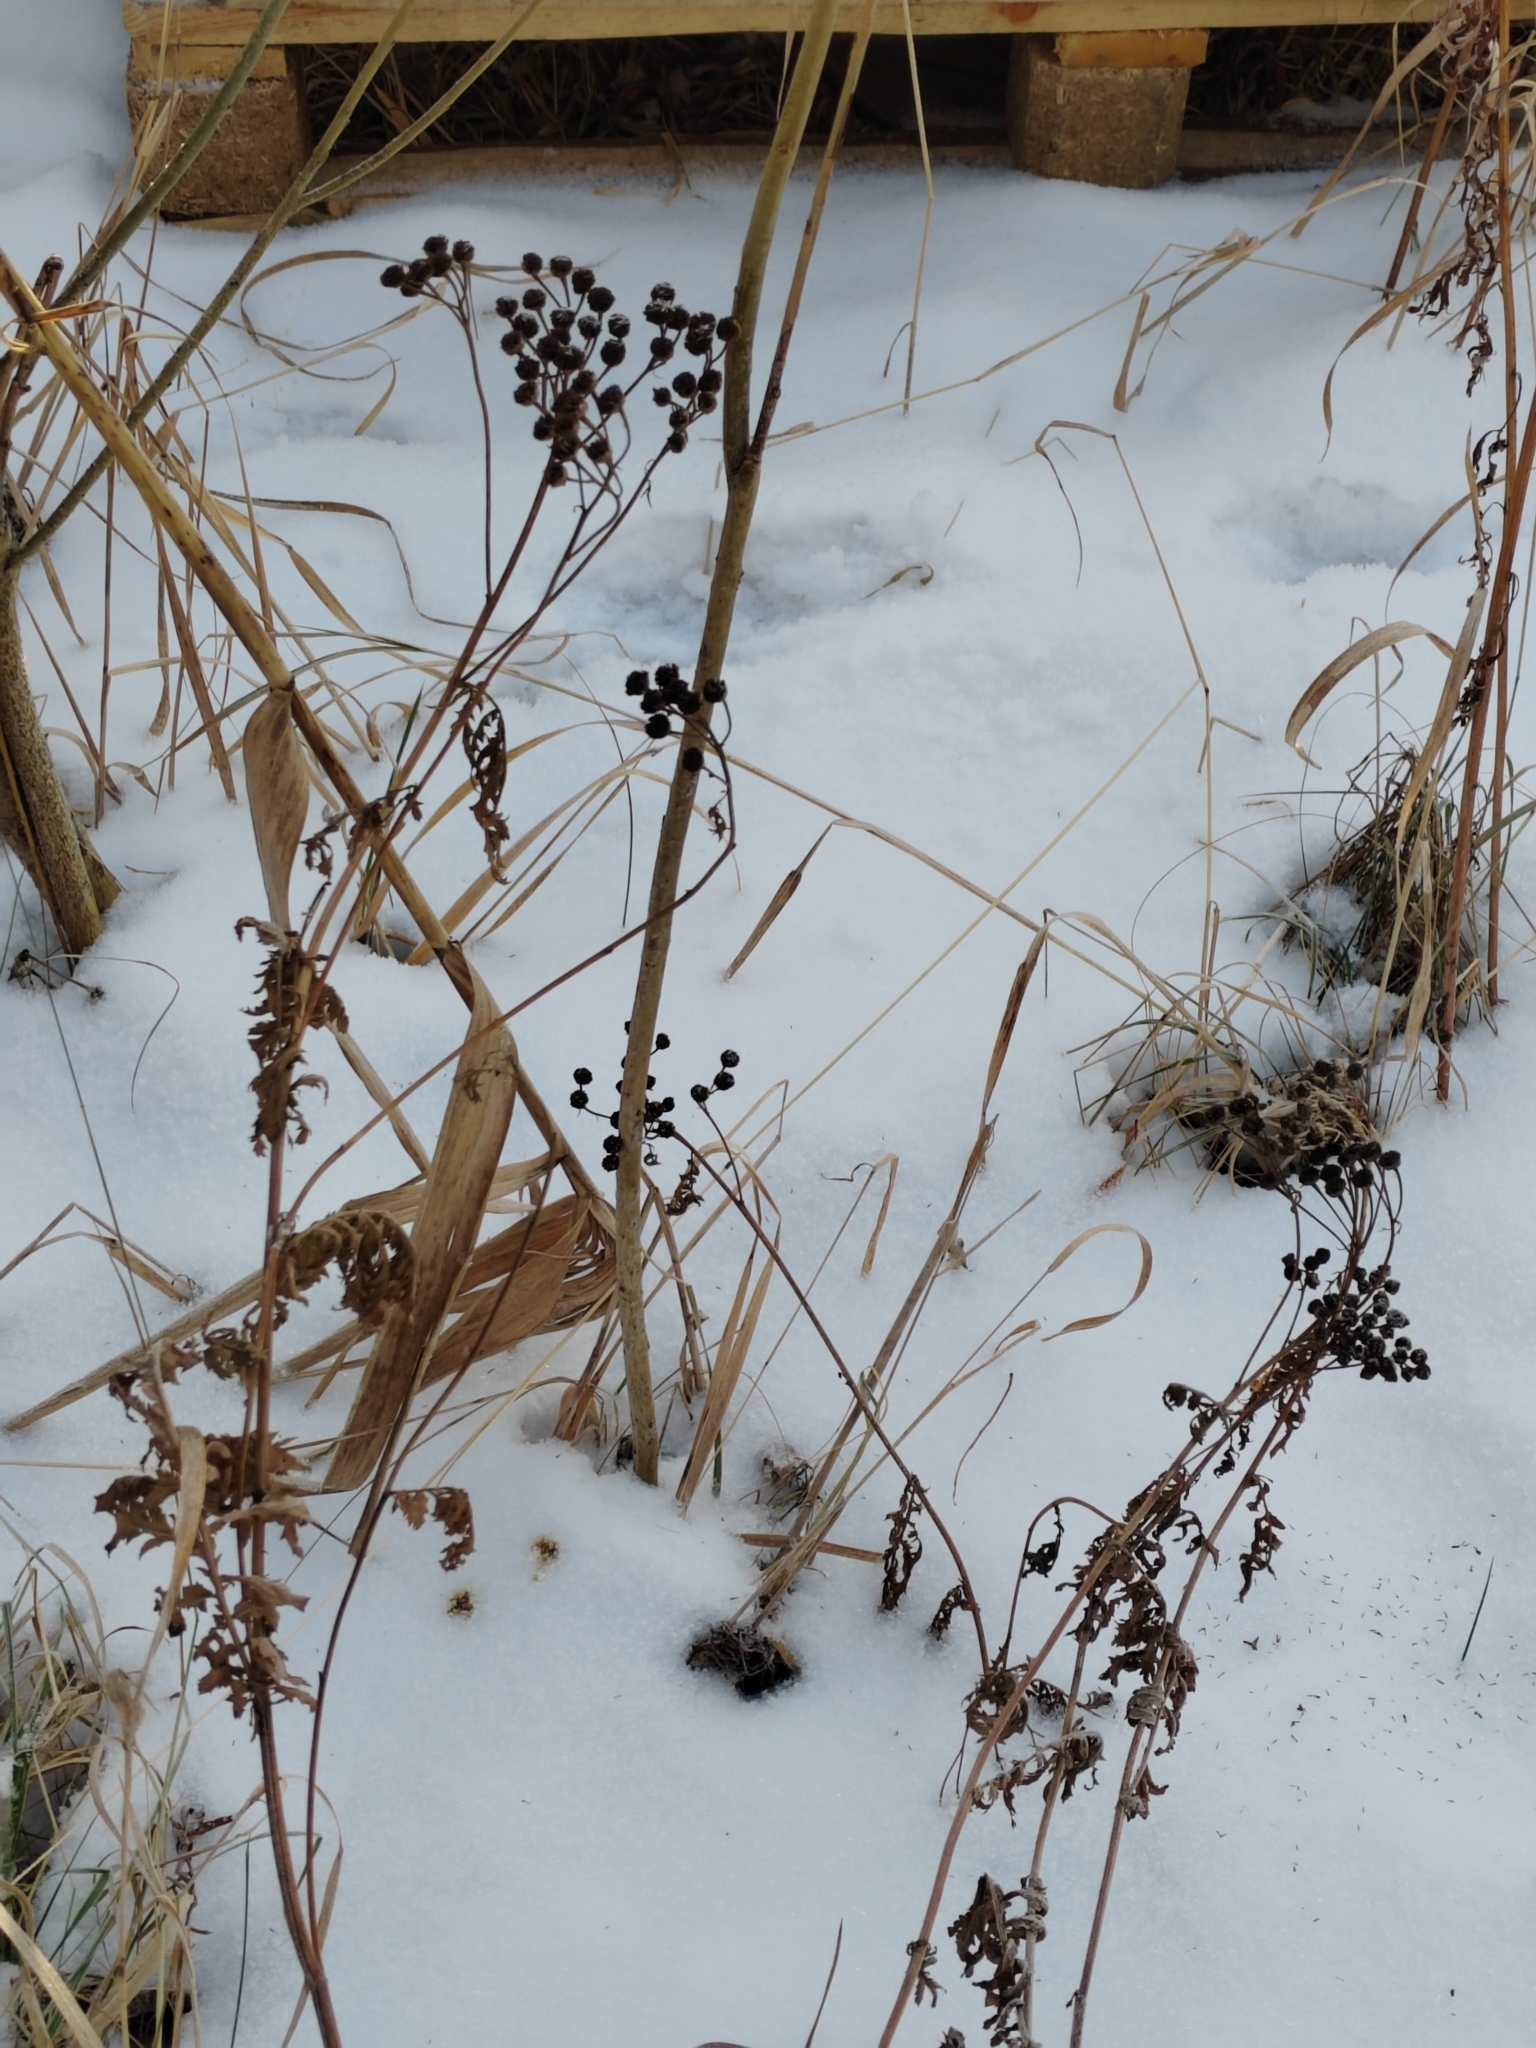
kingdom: Plantae
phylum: Tracheophyta
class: Magnoliopsida
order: Asterales
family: Asteraceae
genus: Tanacetum
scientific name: Tanacetum vulgare
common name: Common tansy
